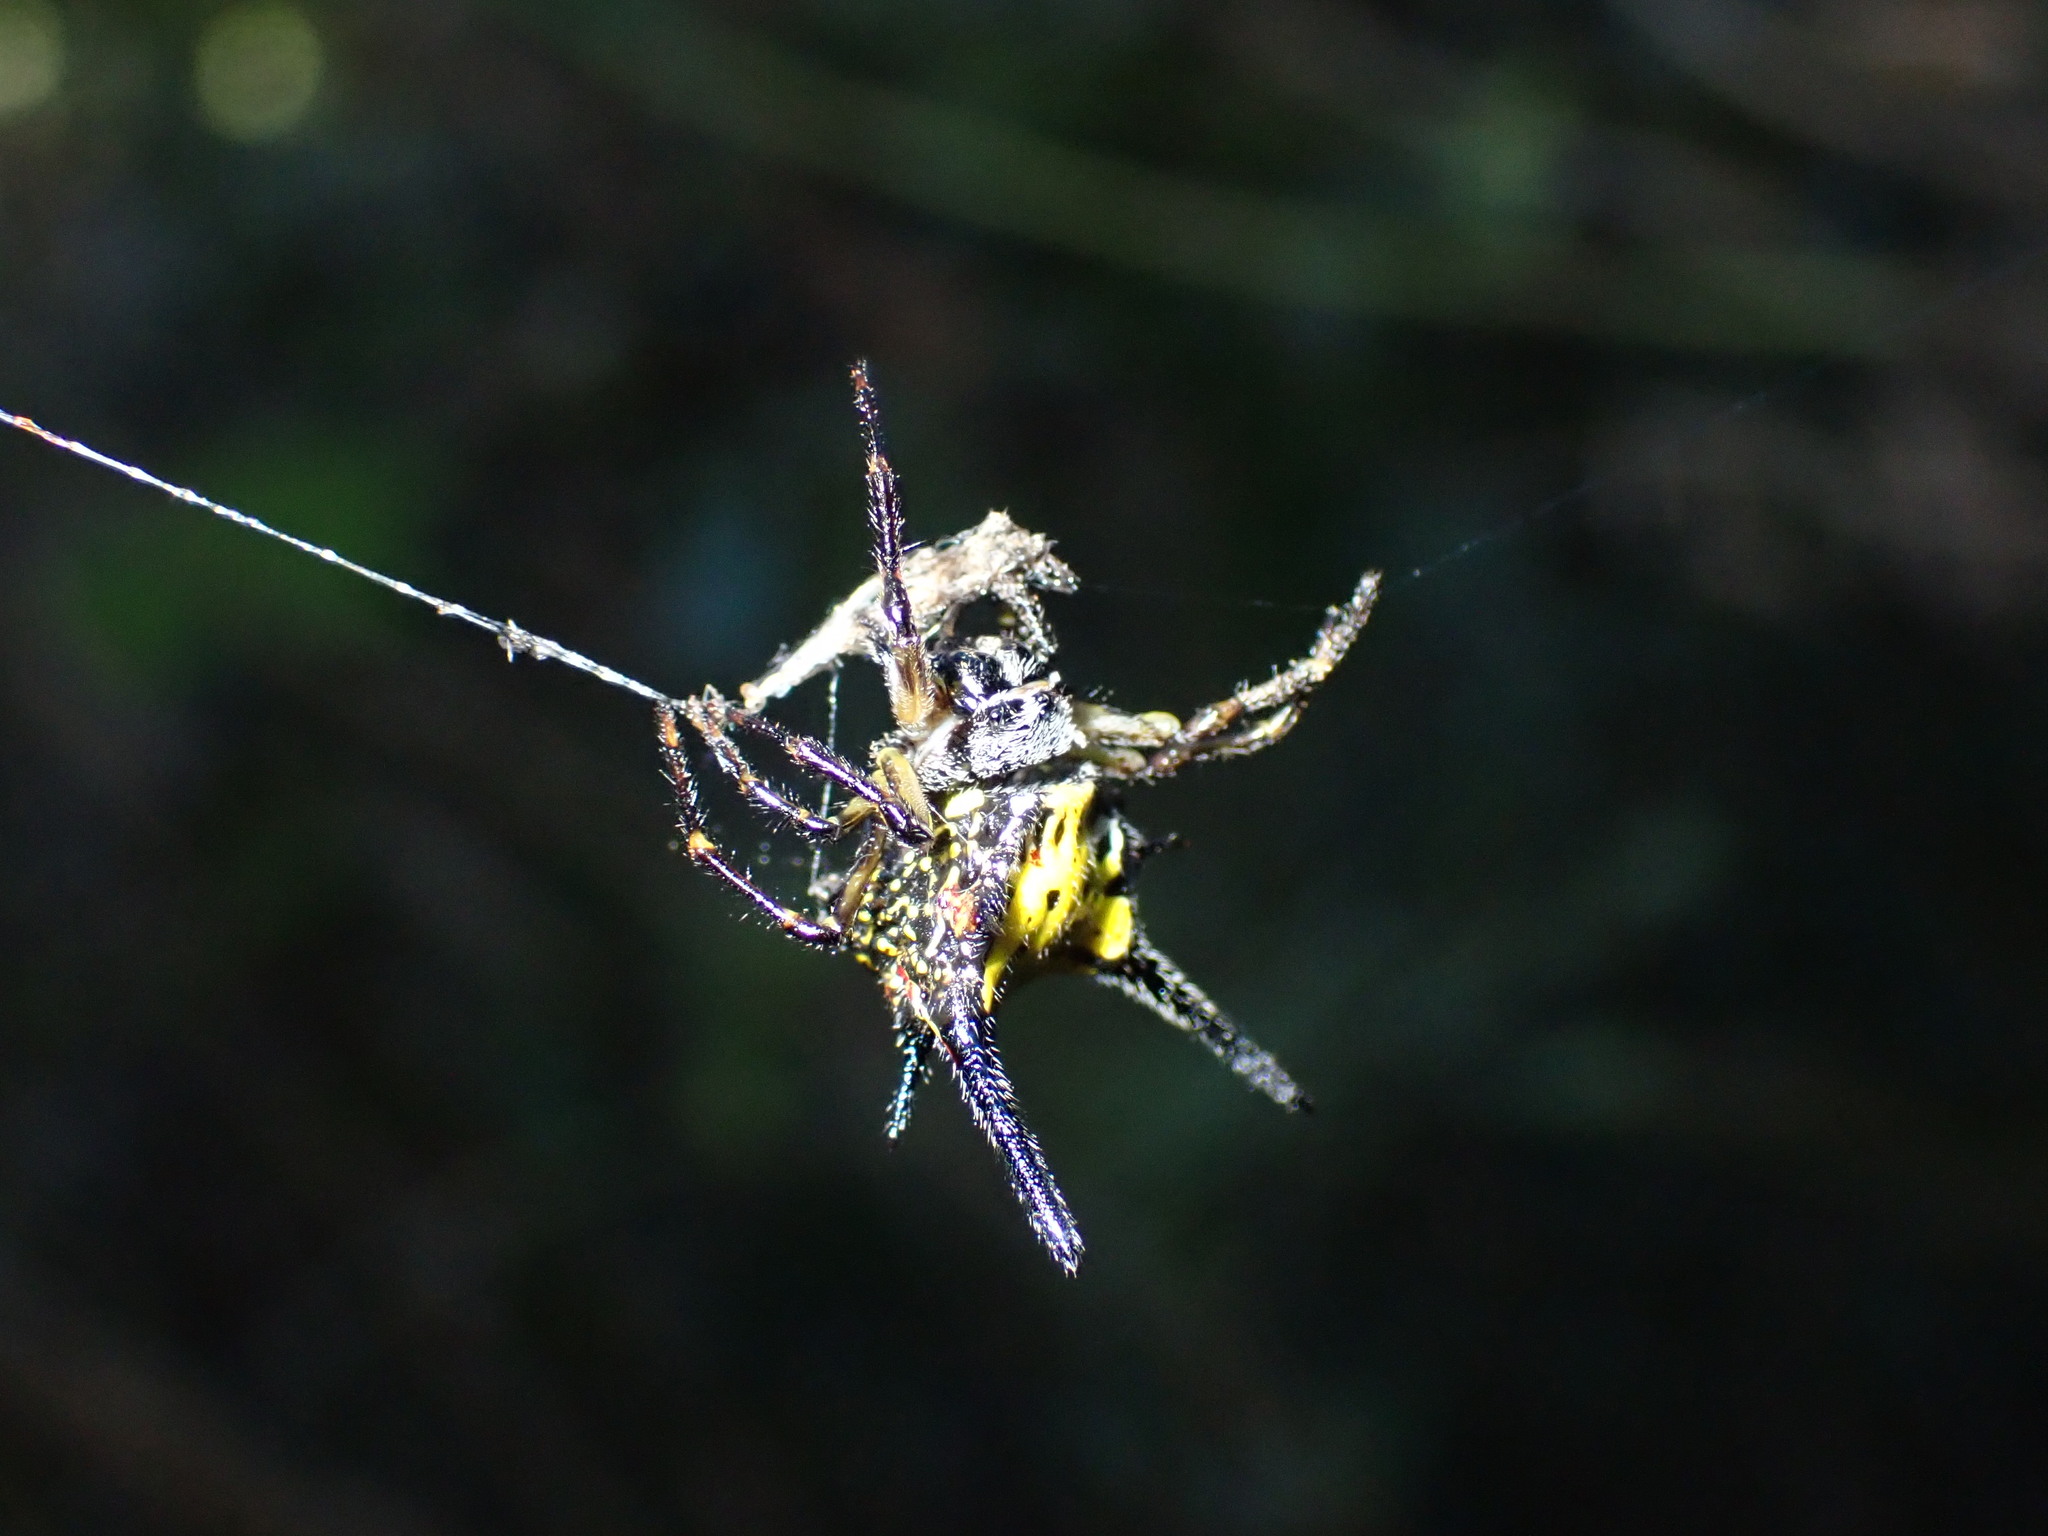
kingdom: Animalia
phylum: Arthropoda
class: Arachnida
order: Araneae
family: Araneidae
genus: Macracantha
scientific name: Macracantha hasselti
